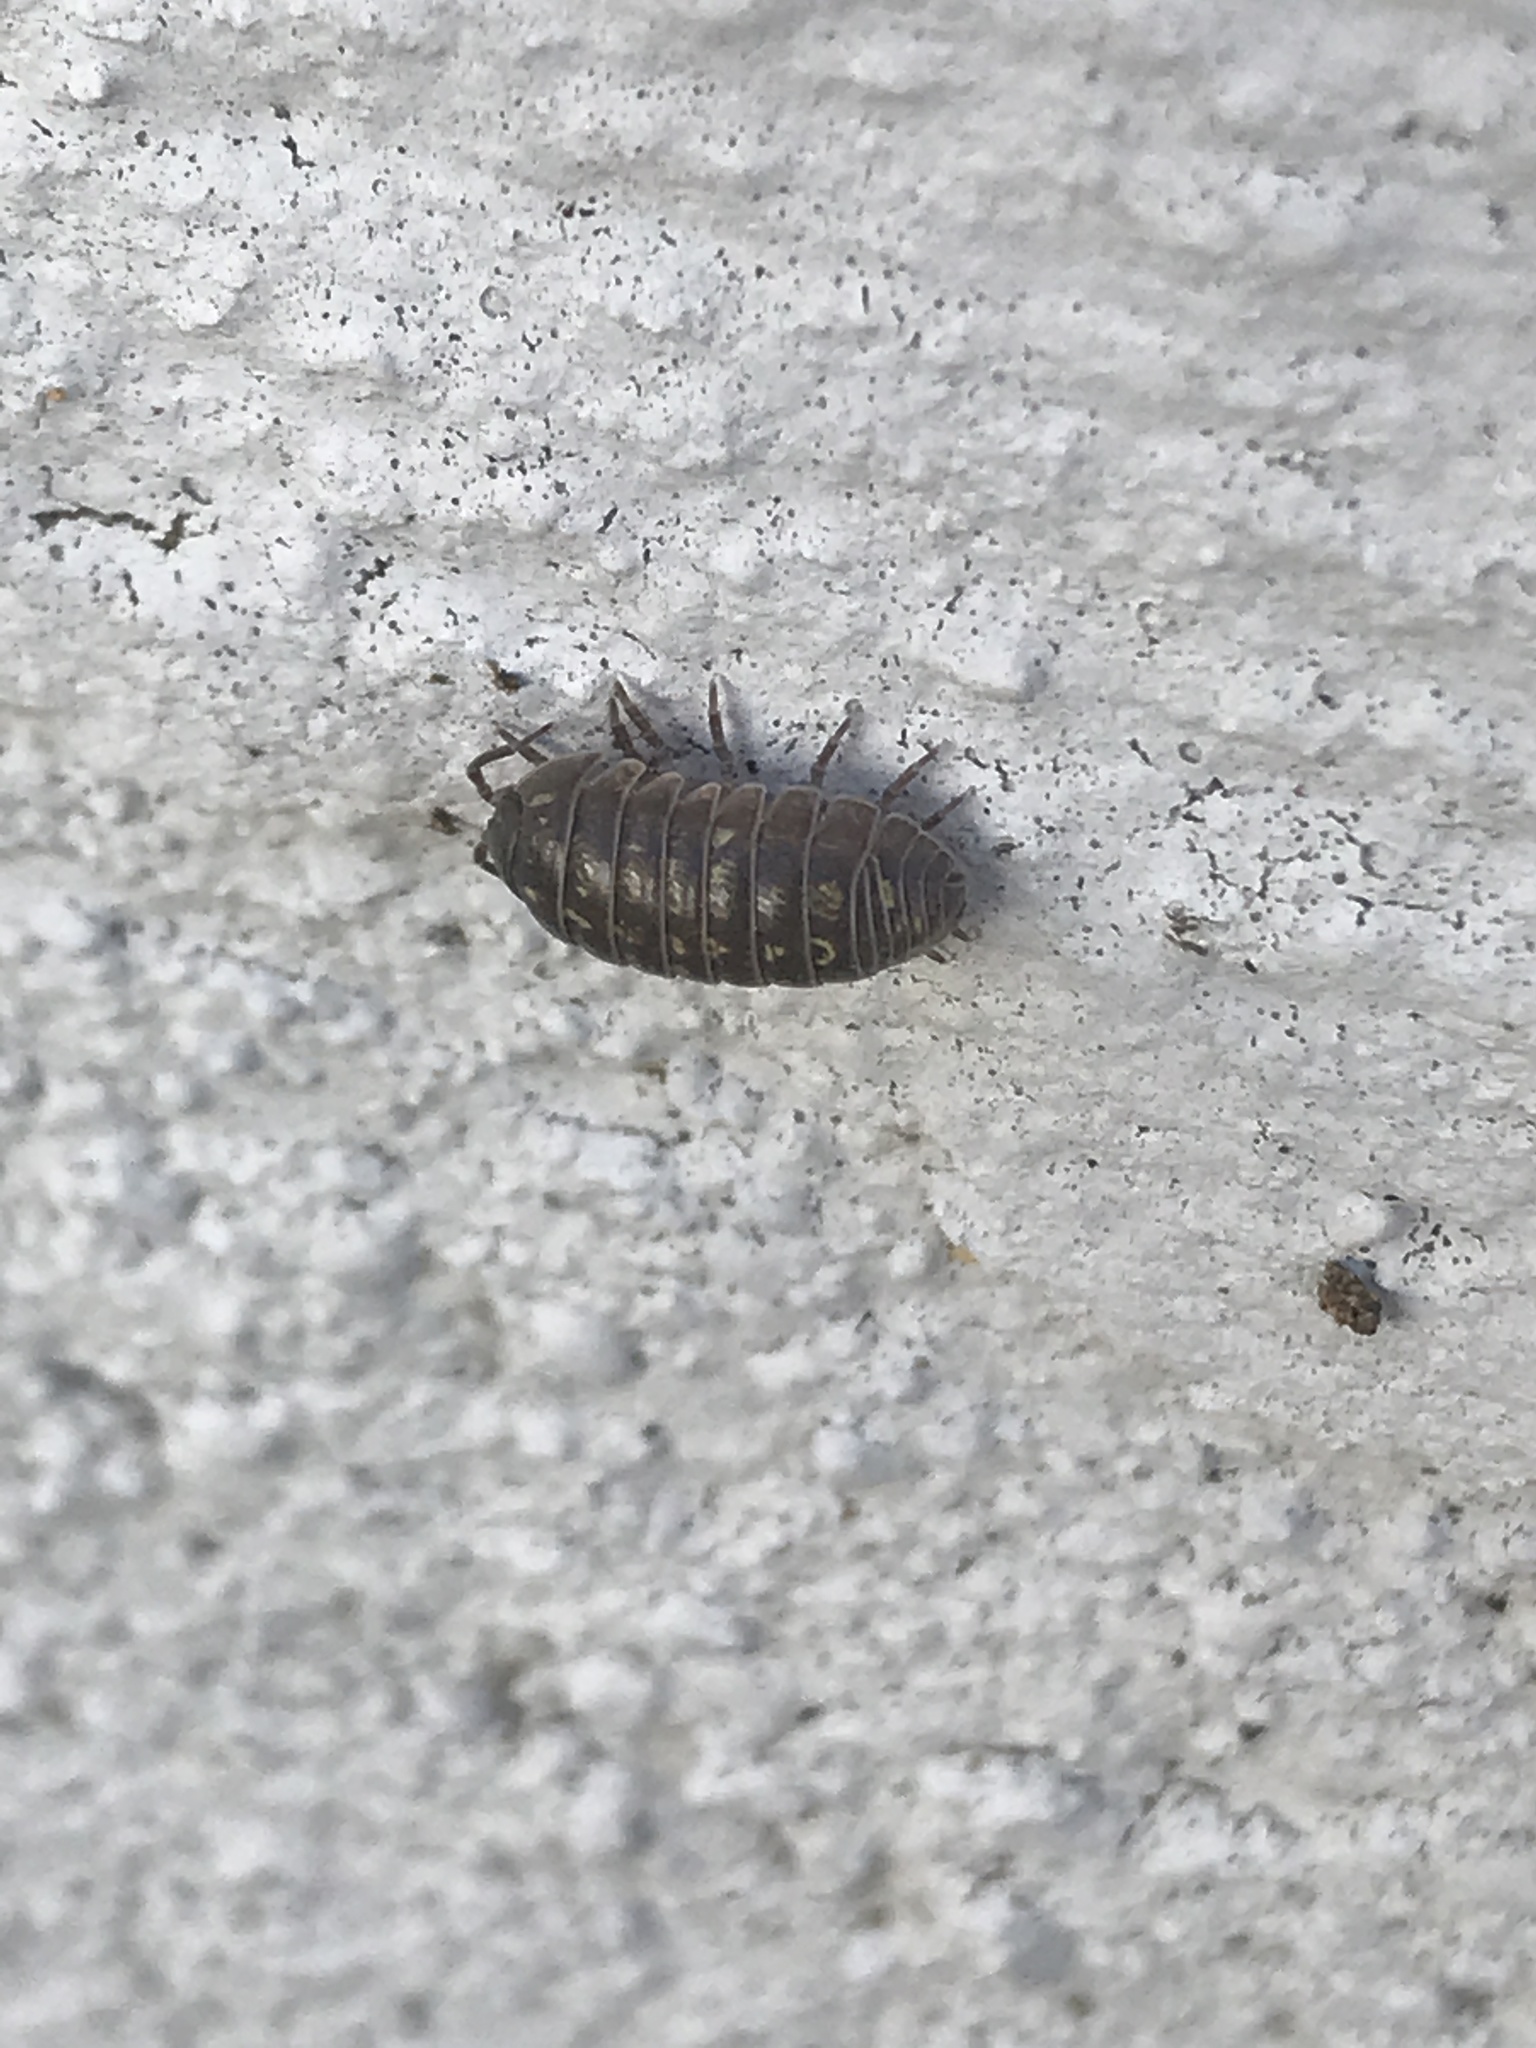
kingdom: Animalia
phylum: Arthropoda
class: Malacostraca
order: Isopoda
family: Armadillidiidae
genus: Armadillidium
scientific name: Armadillidium vulgare
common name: Common pill woodlouse
